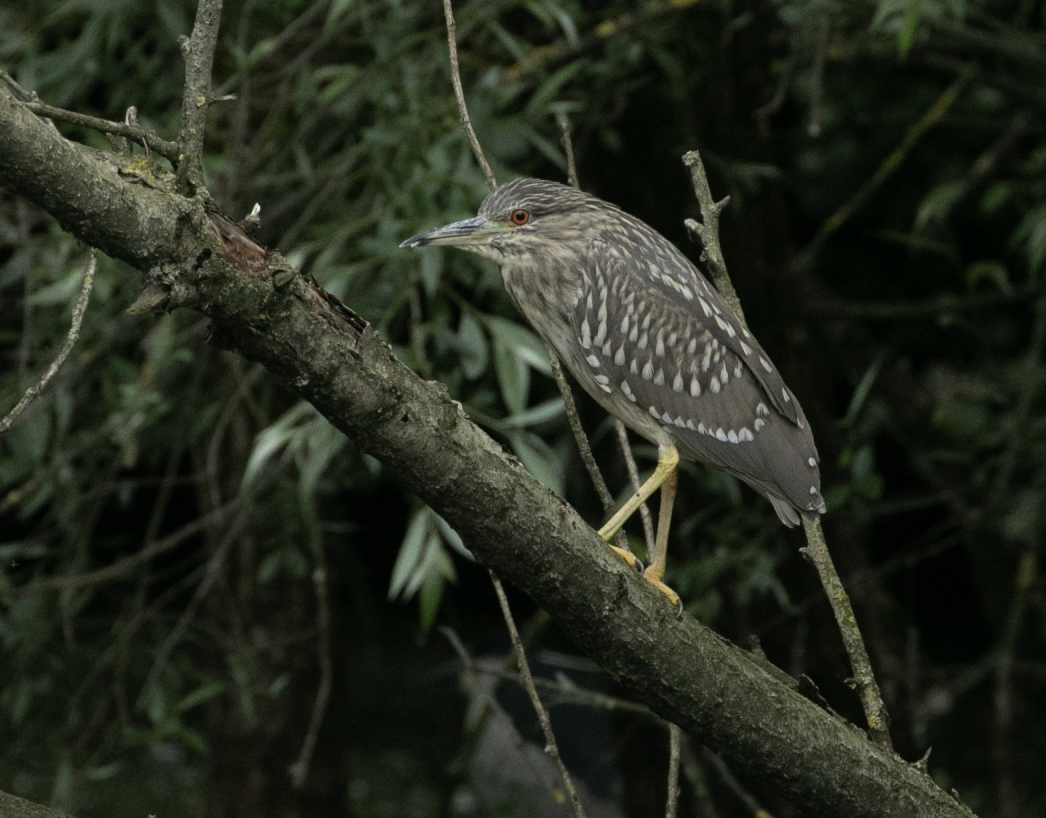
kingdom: Animalia
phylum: Chordata
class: Aves
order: Pelecaniformes
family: Ardeidae
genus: Nycticorax
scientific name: Nycticorax nycticorax
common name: Black-crowned night heron
